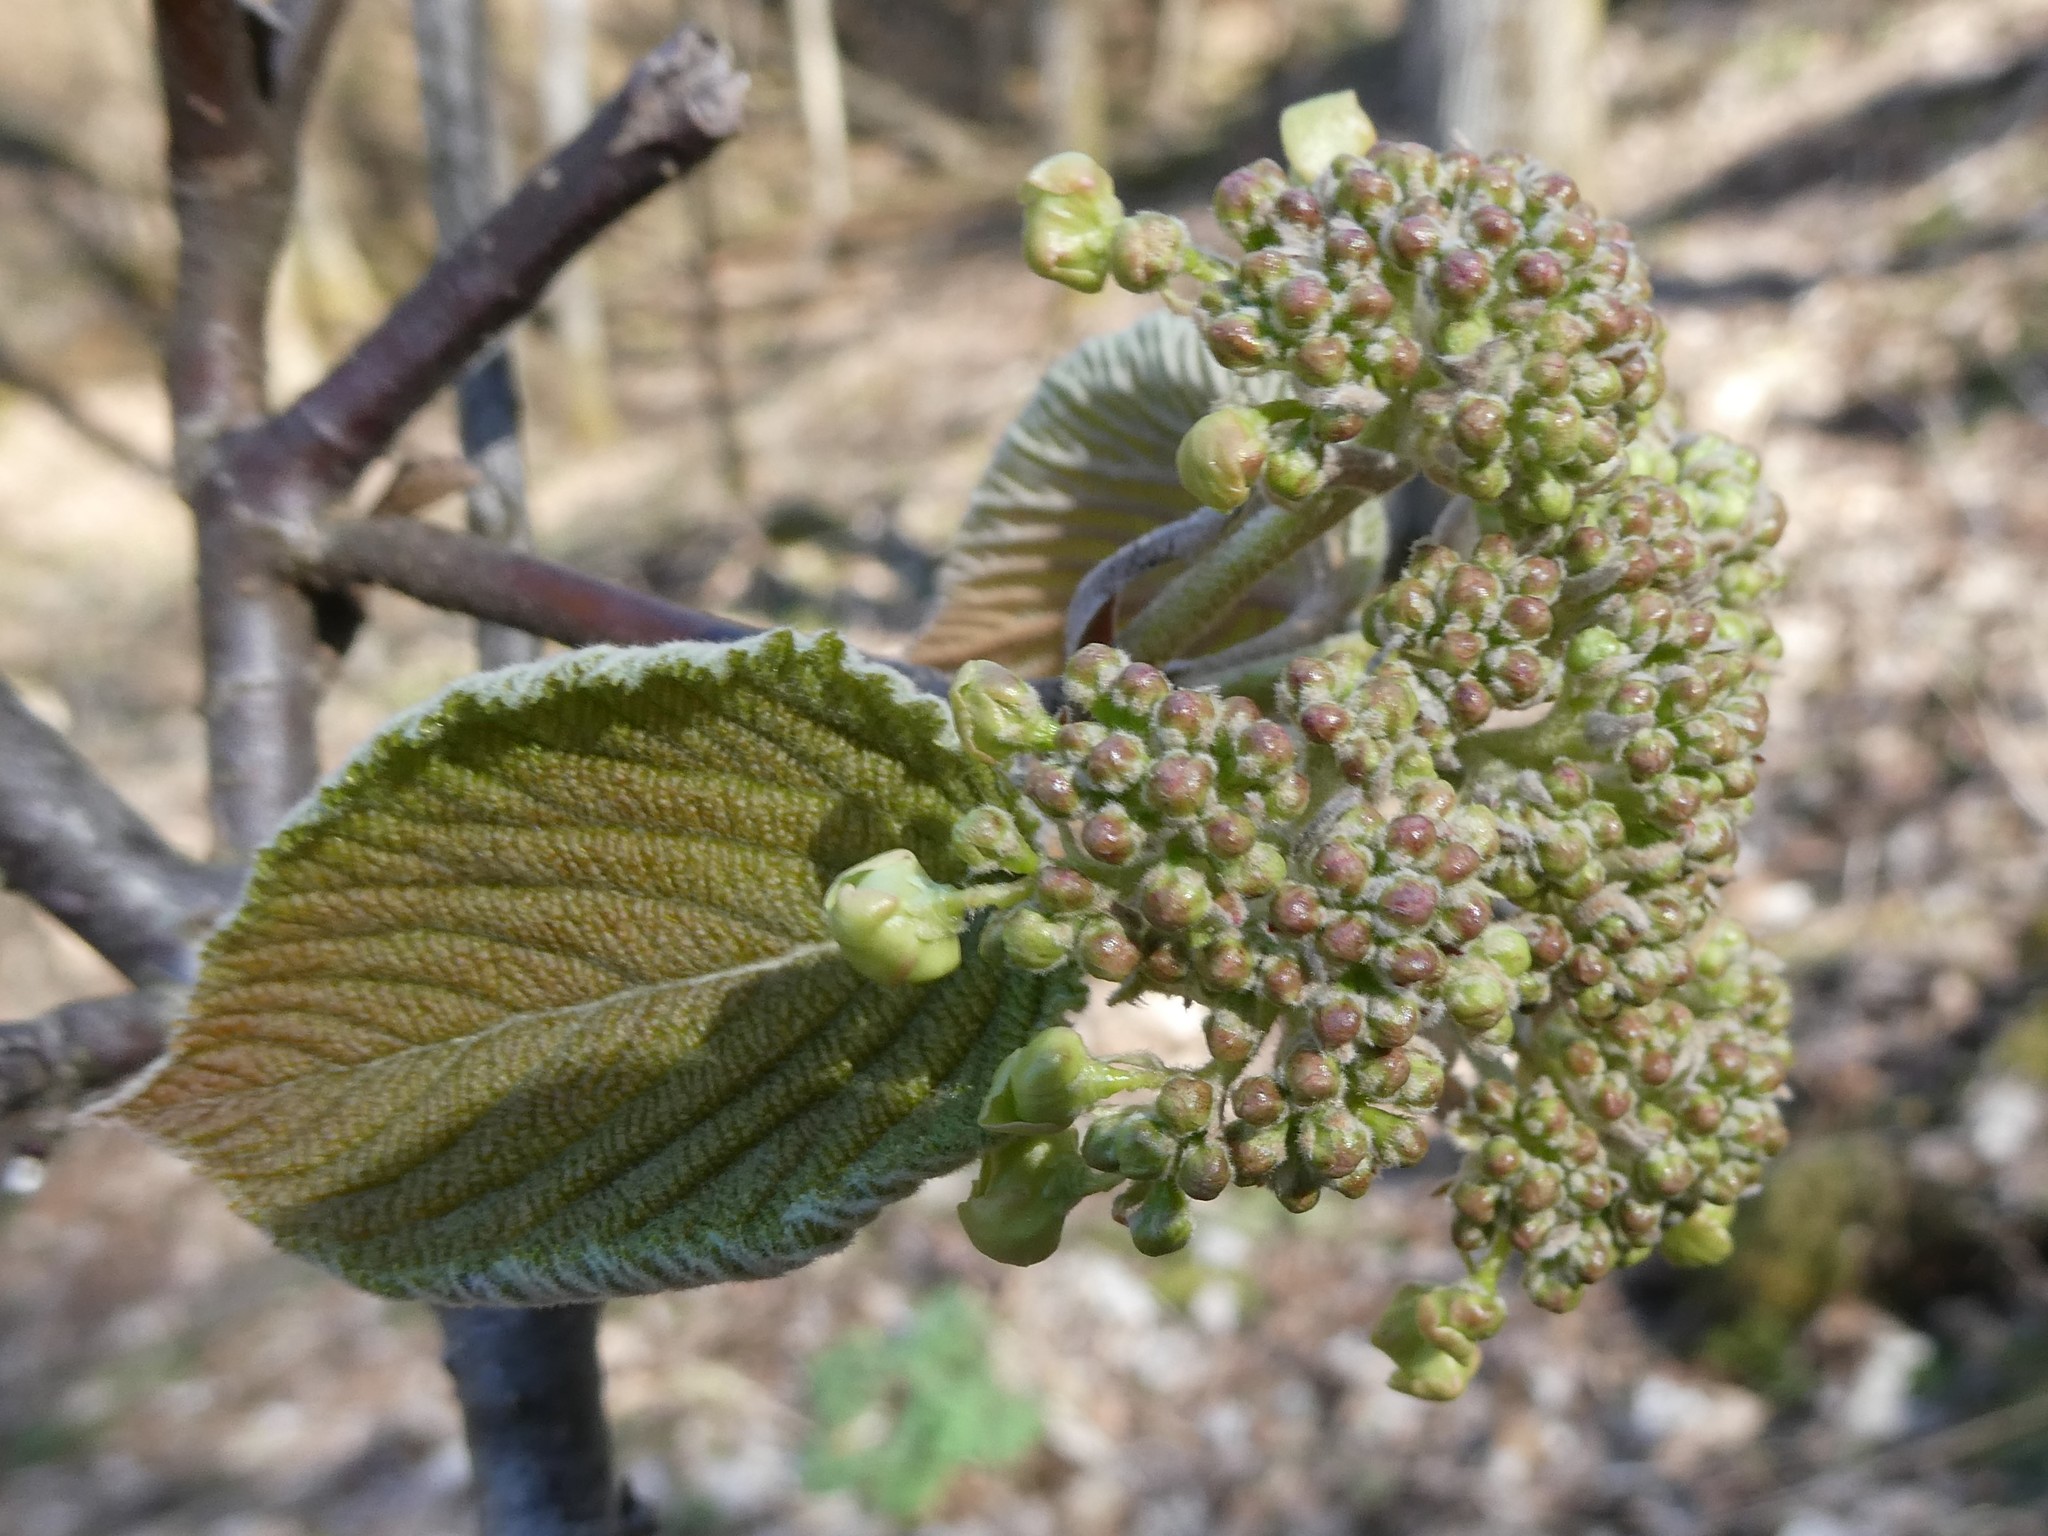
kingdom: Plantae
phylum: Tracheophyta
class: Magnoliopsida
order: Dipsacales
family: Viburnaceae
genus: Viburnum
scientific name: Viburnum lantanoides
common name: Hobblebush
